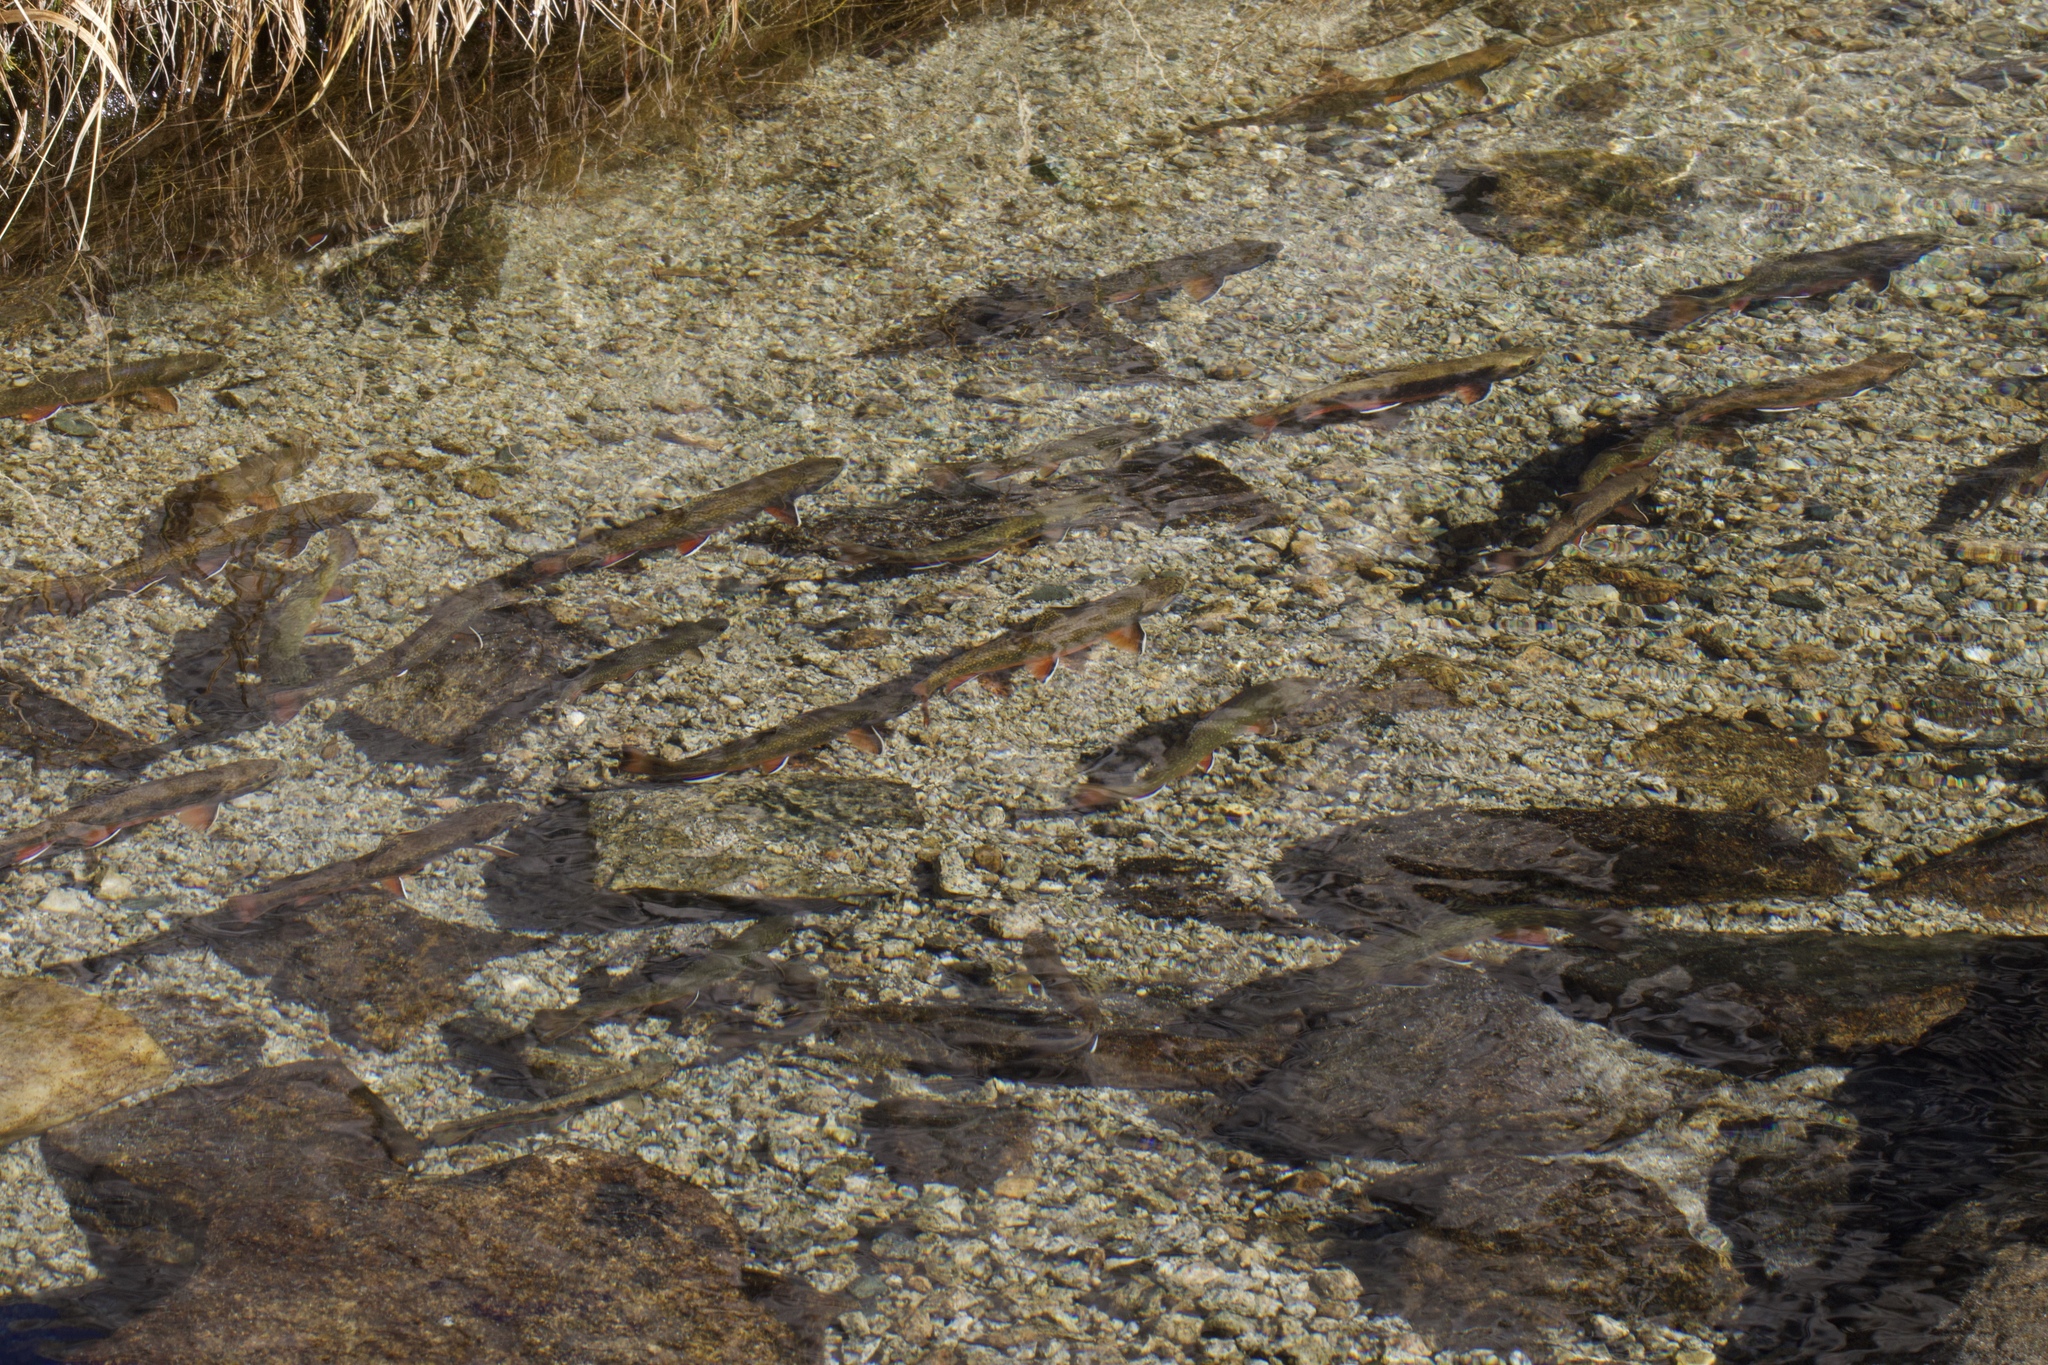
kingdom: Animalia
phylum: Chordata
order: Salmoniformes
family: Salmonidae
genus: Salvelinus
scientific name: Salvelinus fontinalis
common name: Brook trout
